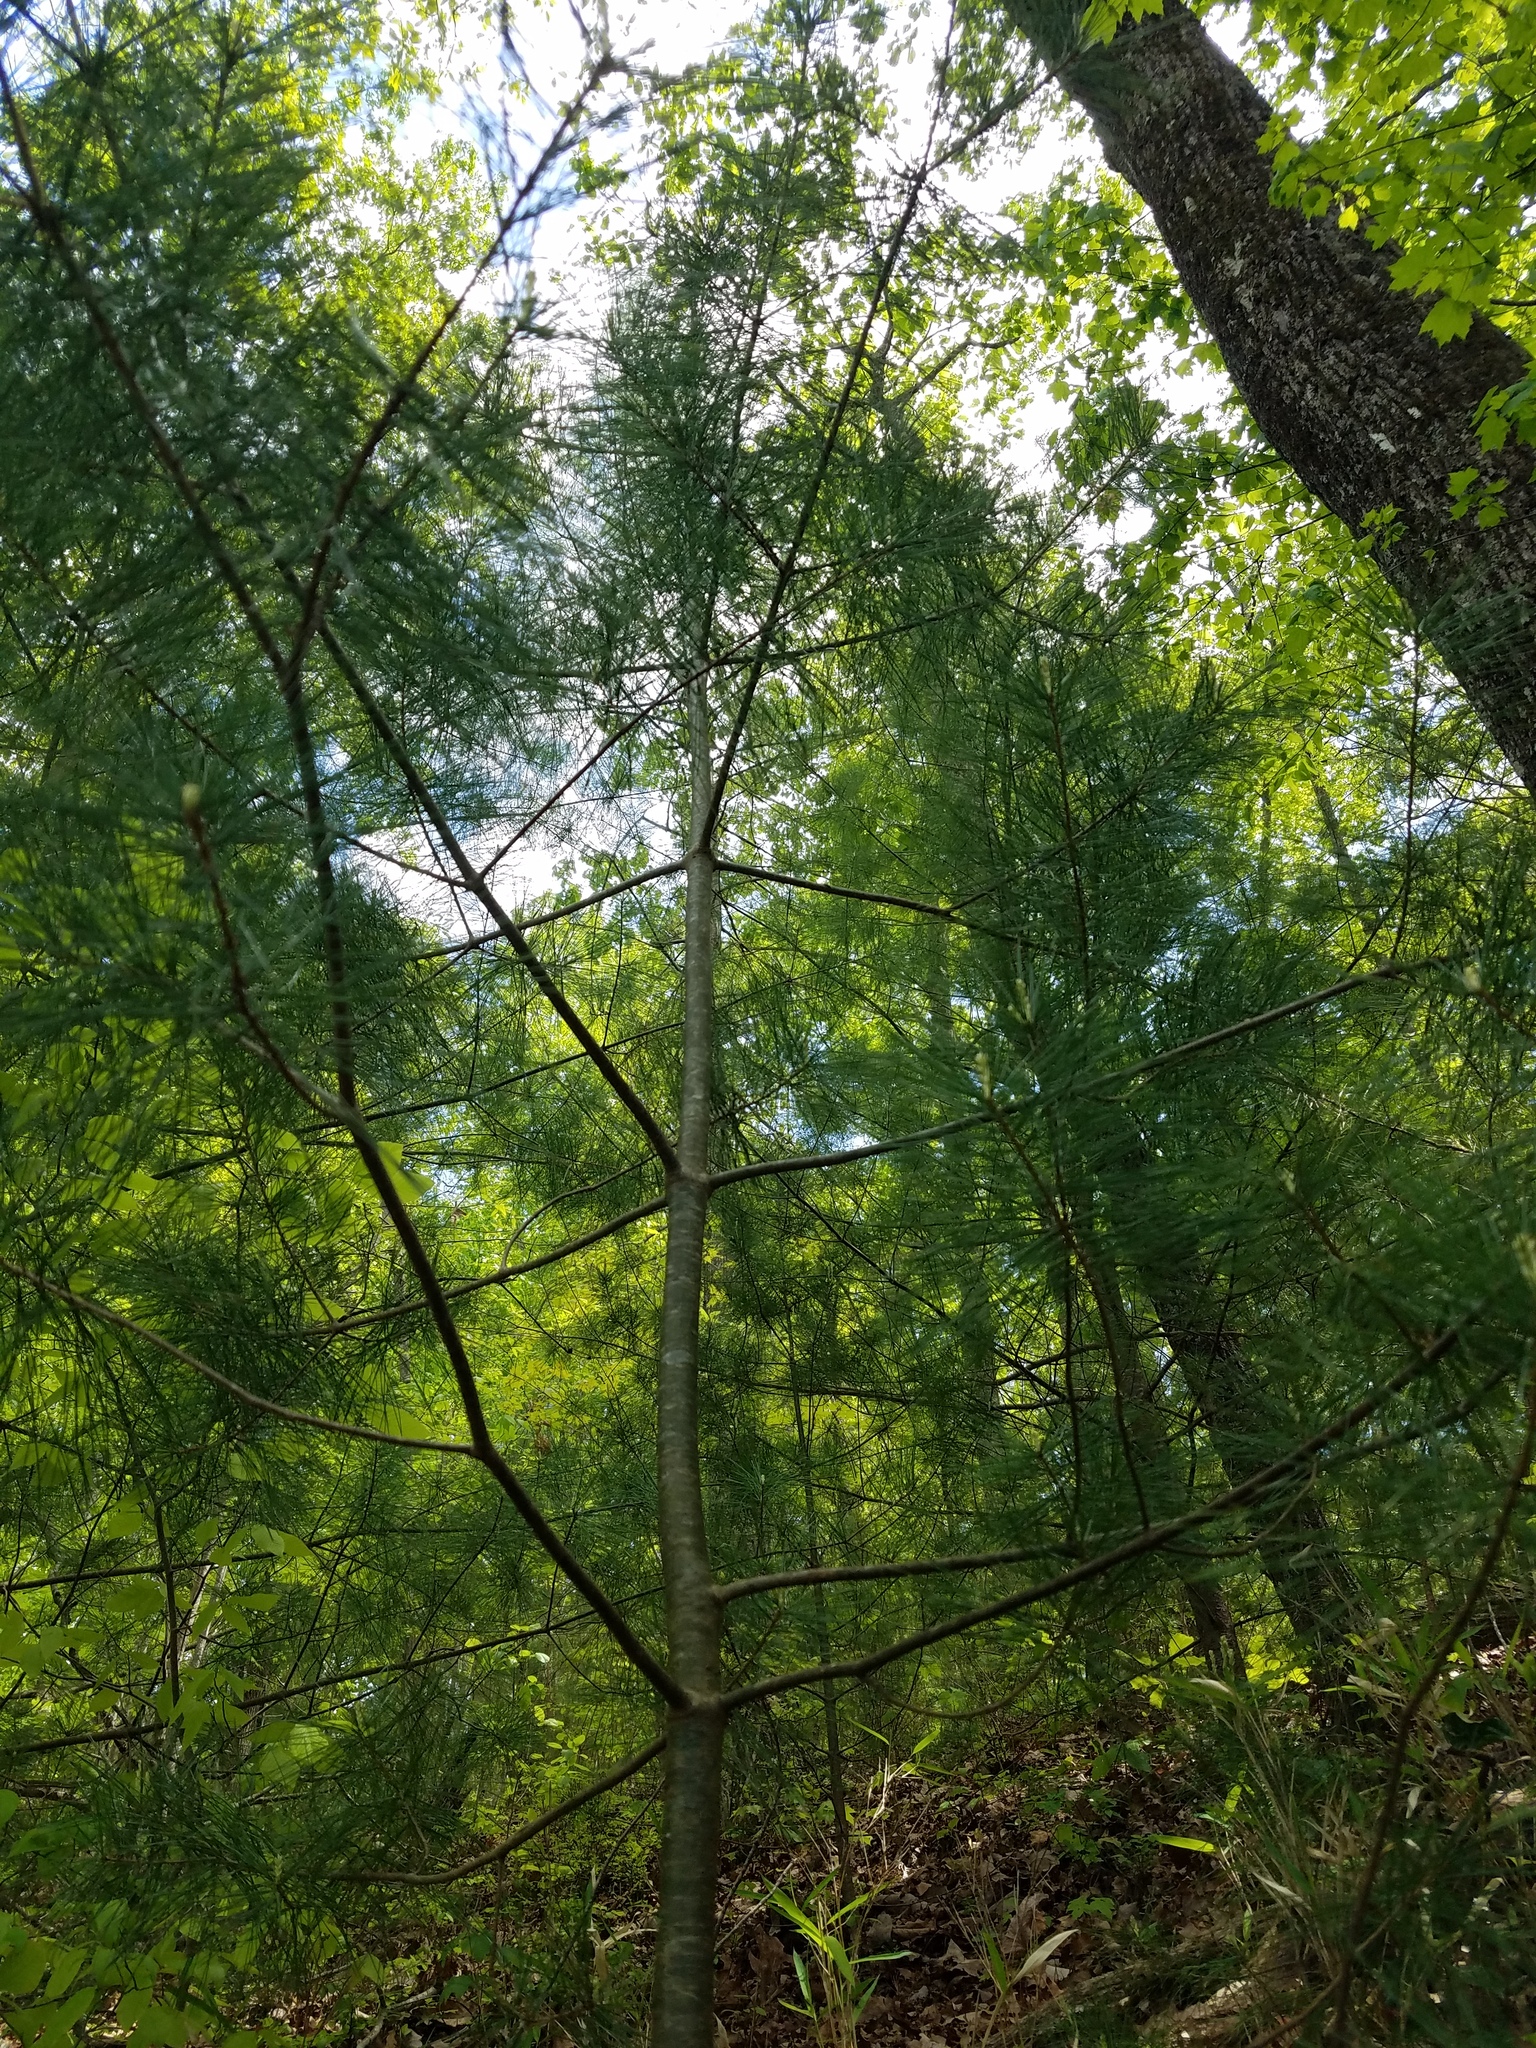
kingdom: Plantae
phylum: Tracheophyta
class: Pinopsida
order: Pinales
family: Pinaceae
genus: Pinus
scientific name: Pinus strobus
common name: Weymouth pine
